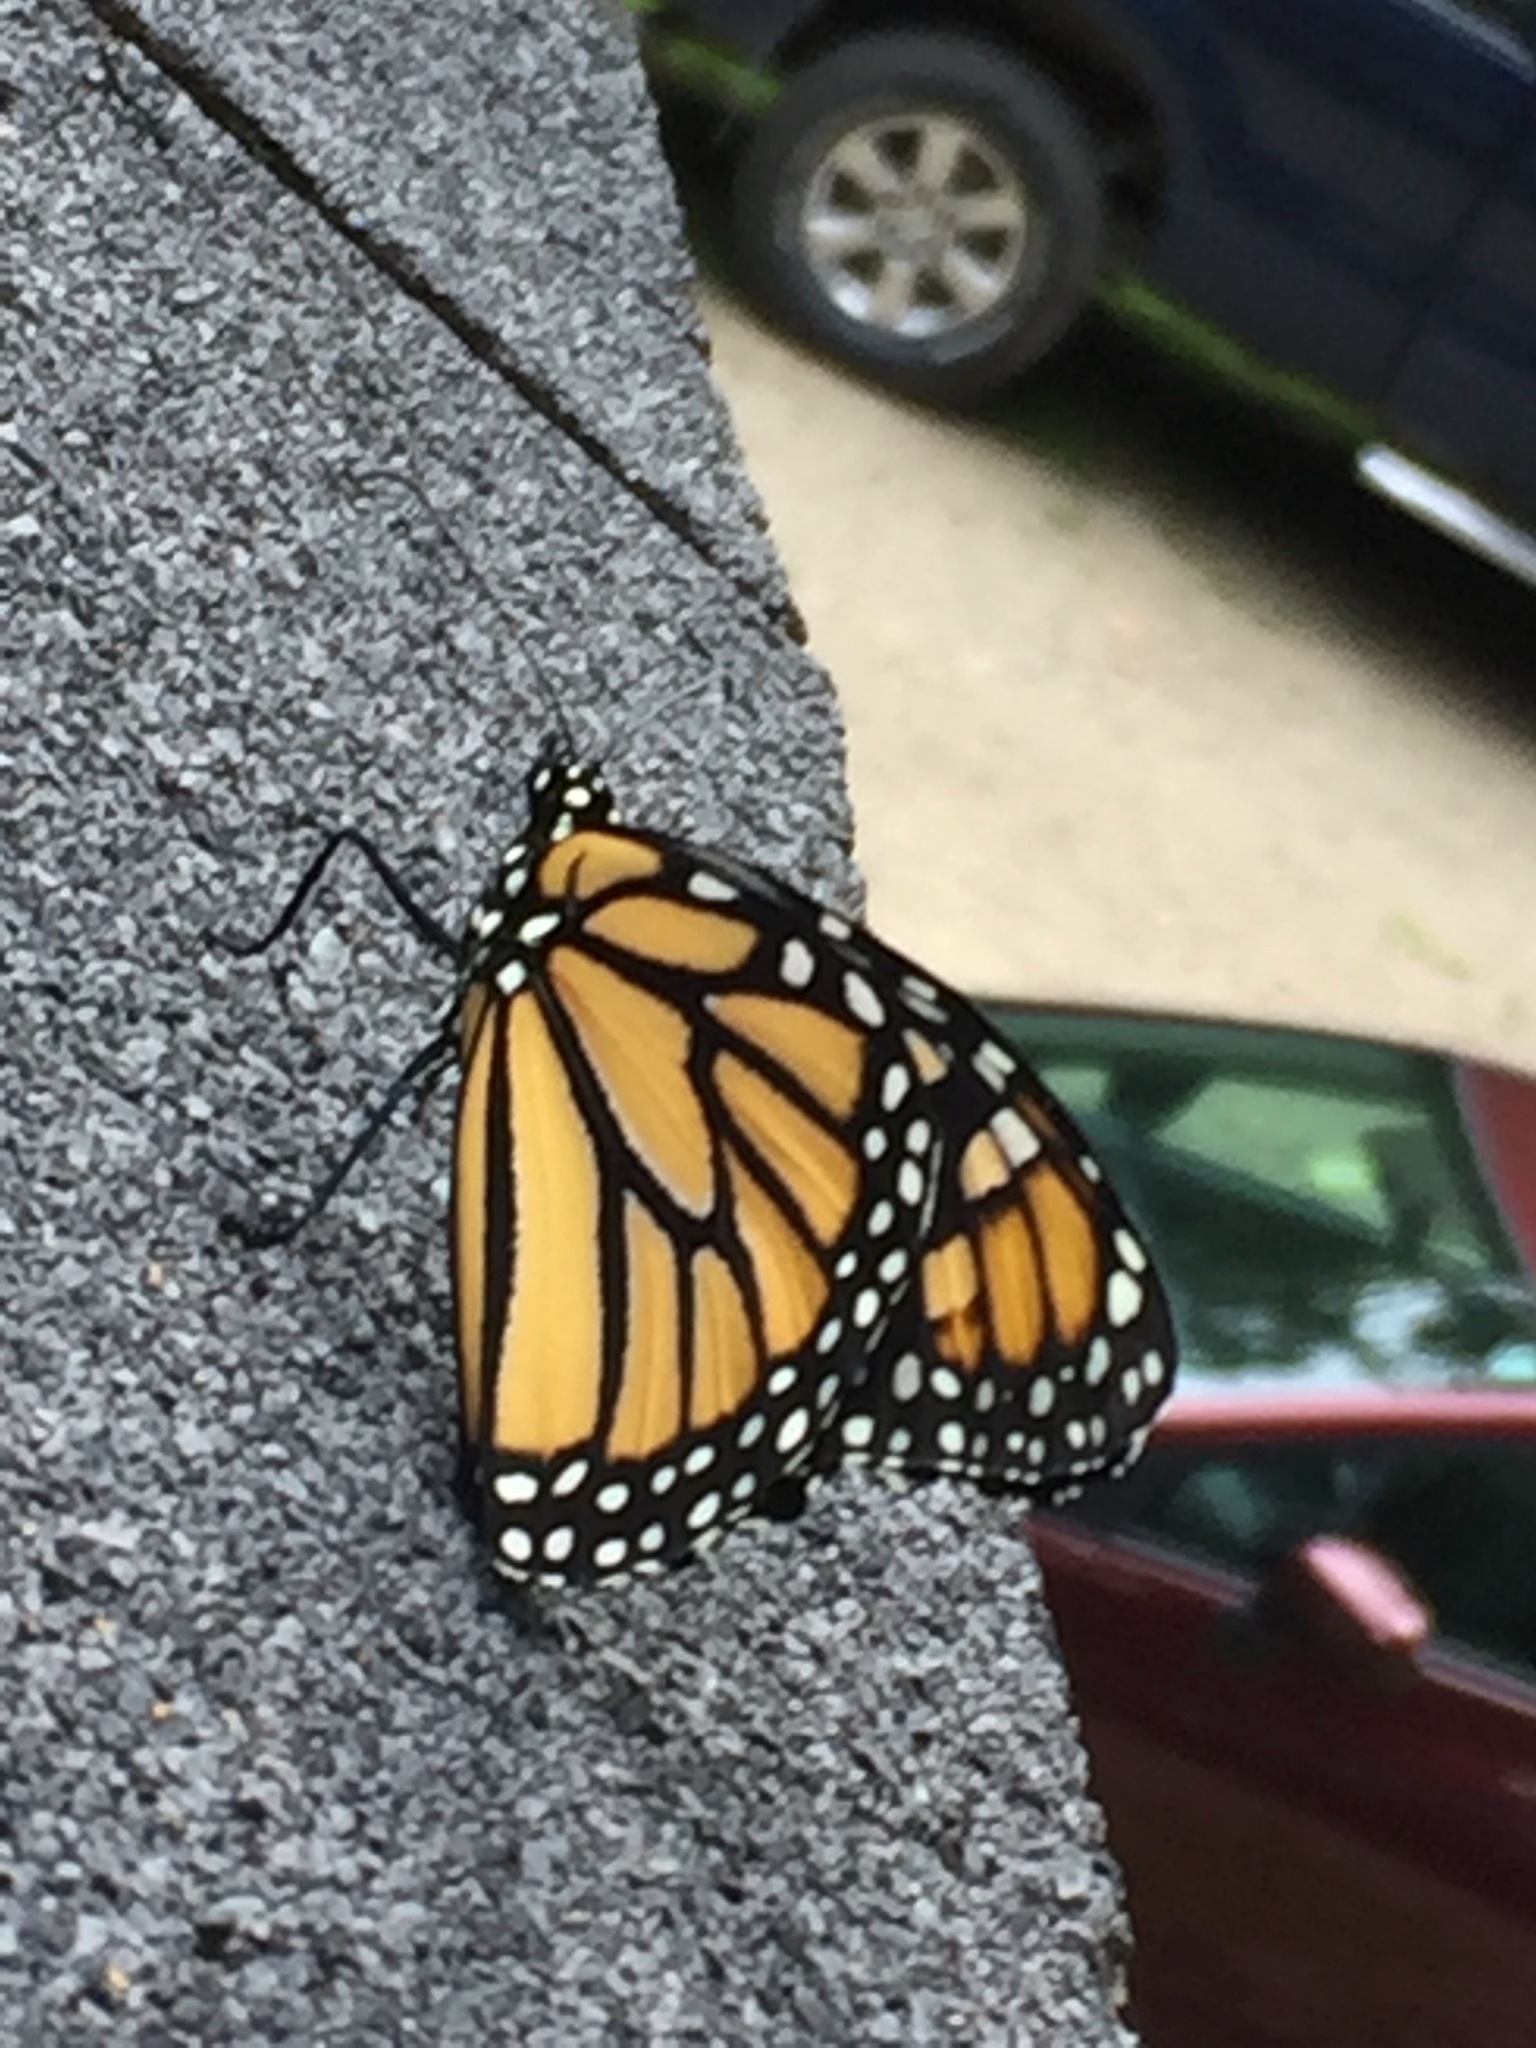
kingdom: Animalia
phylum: Arthropoda
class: Insecta
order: Lepidoptera
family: Nymphalidae
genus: Danaus
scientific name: Danaus plexippus
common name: Monarch
